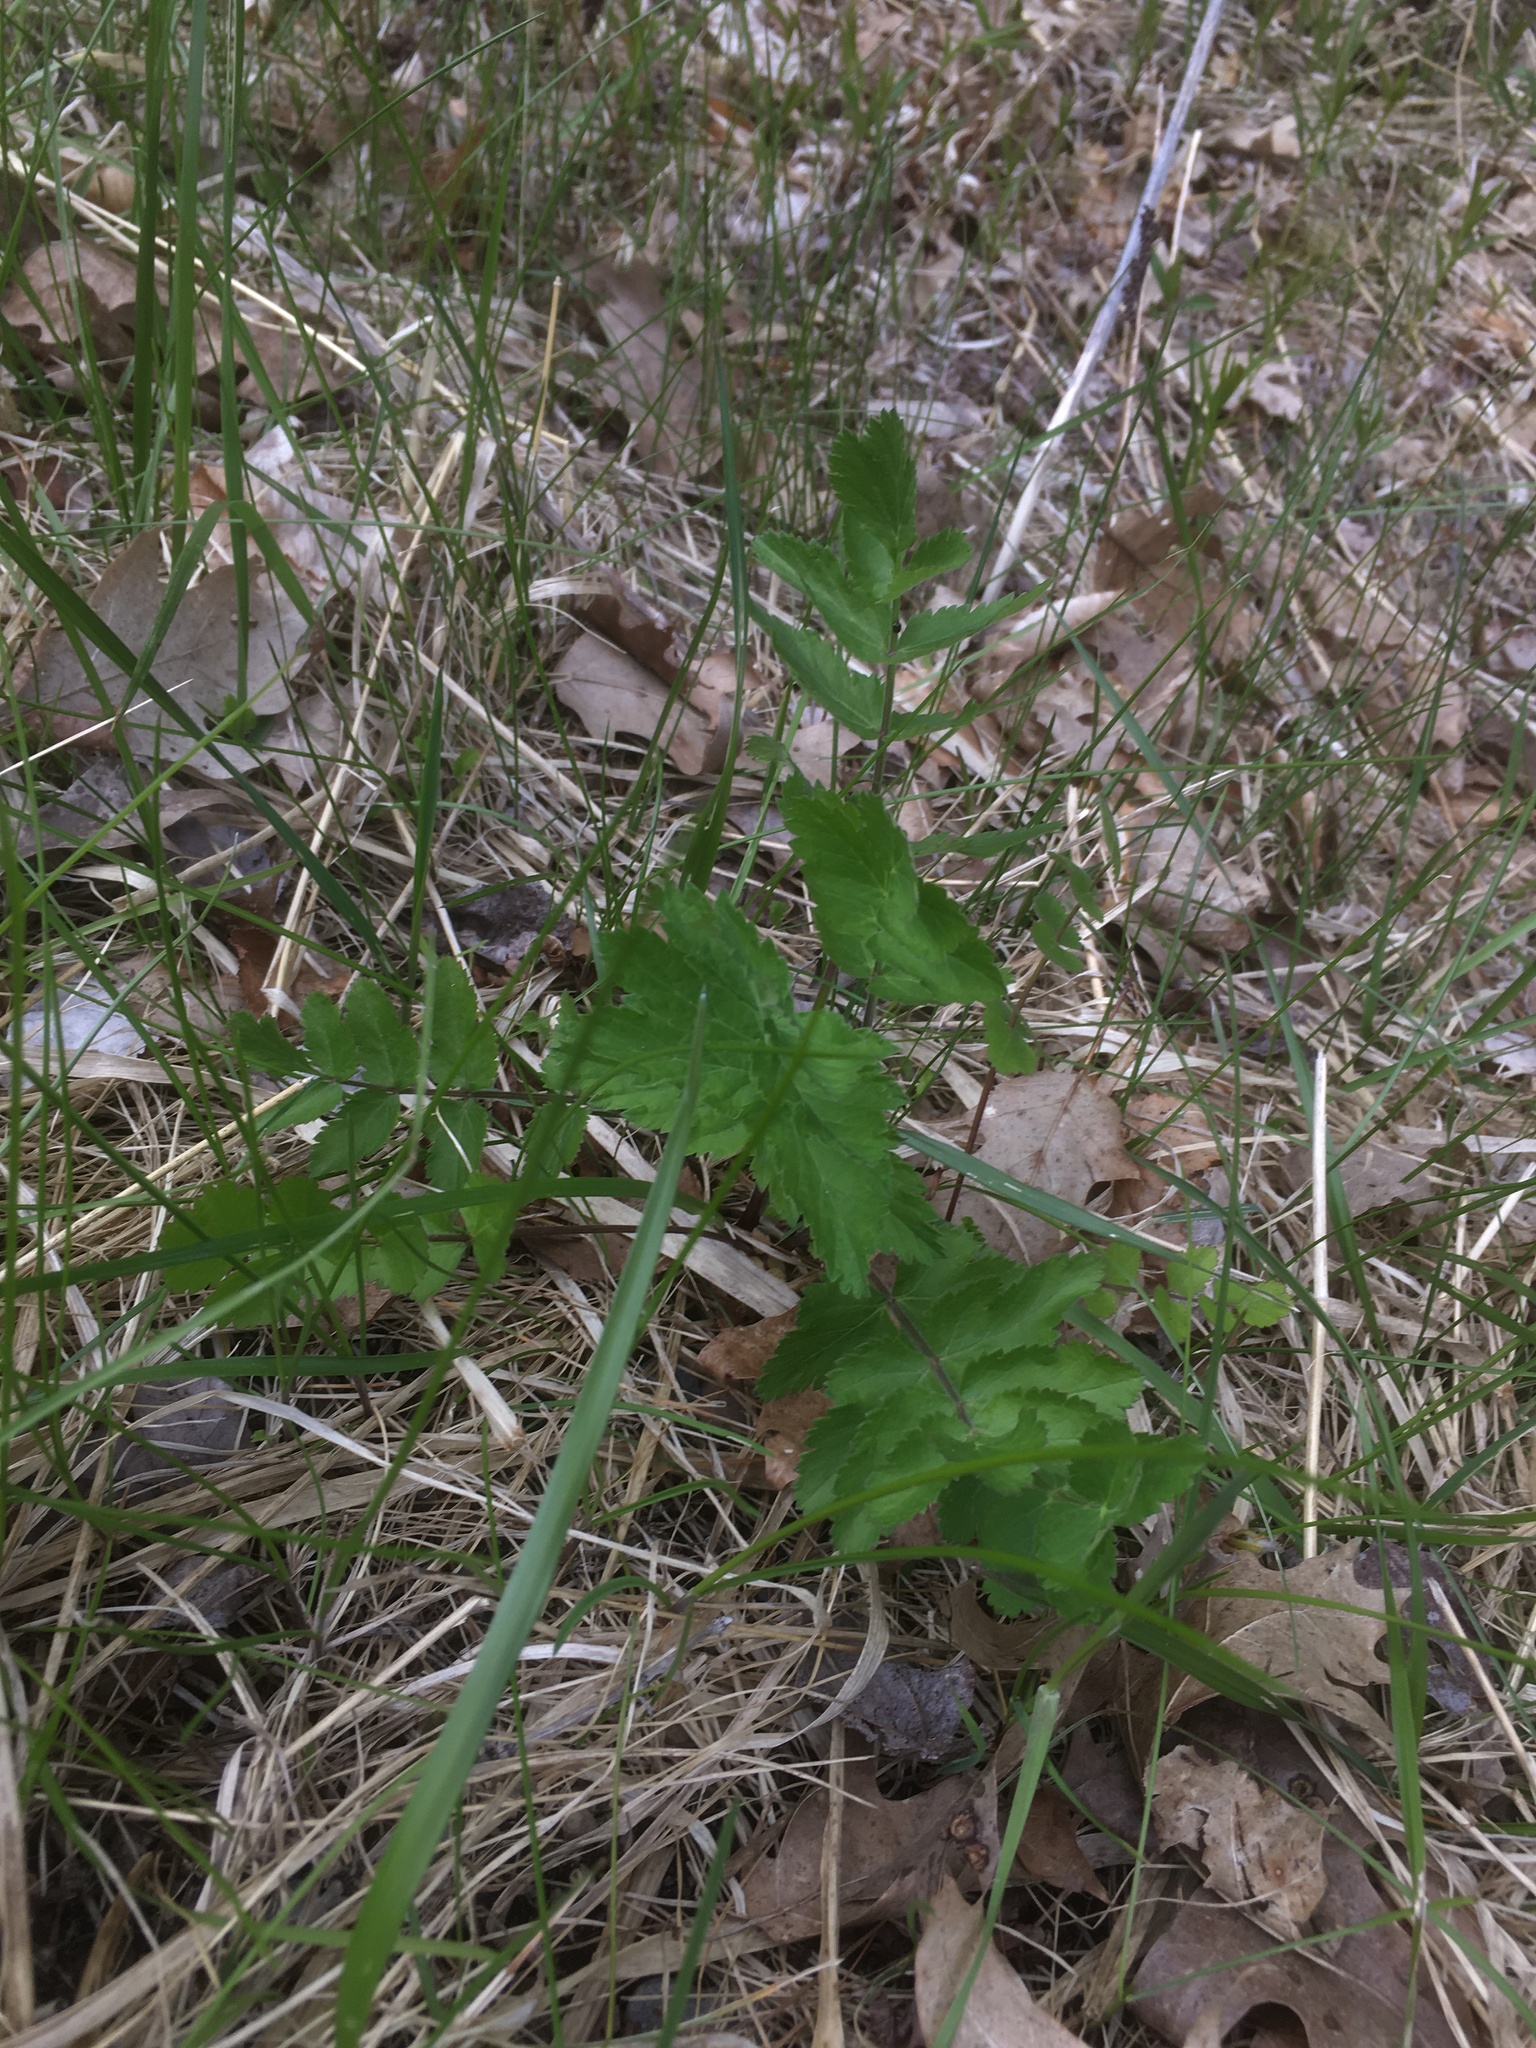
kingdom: Plantae
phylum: Tracheophyta
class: Magnoliopsida
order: Apiales
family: Apiaceae
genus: Pastinaca
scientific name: Pastinaca sativa
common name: Wild parsnip
